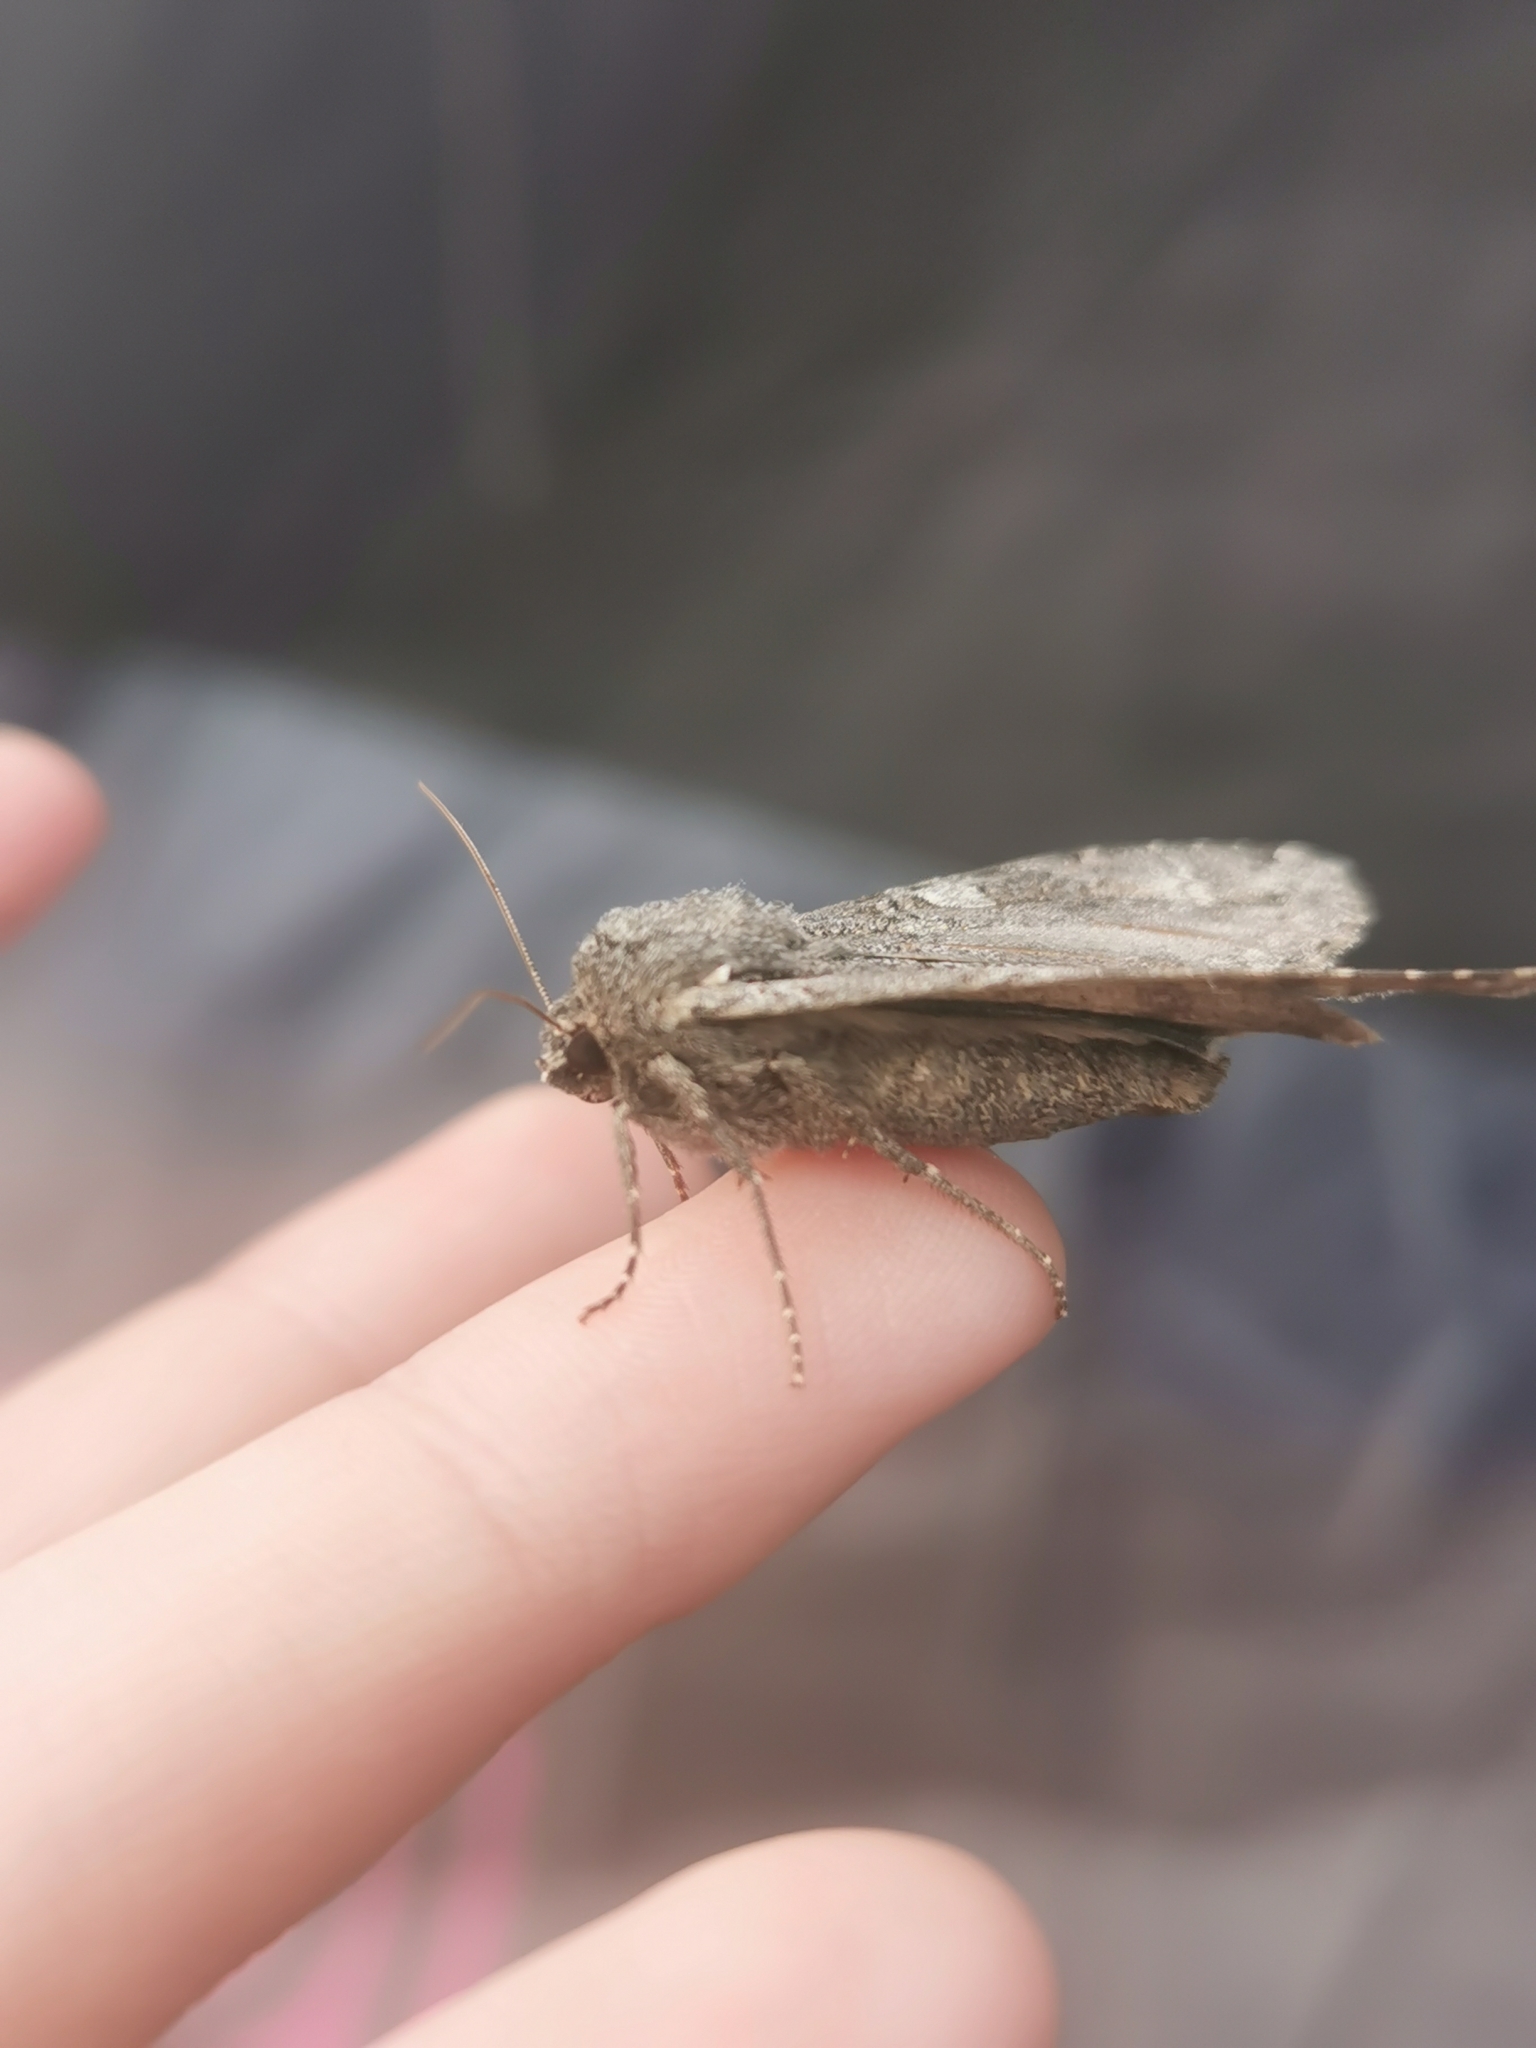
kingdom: Animalia
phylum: Arthropoda
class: Insecta
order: Lepidoptera
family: Noctuidae
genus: Eurois
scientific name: Eurois occulta
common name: Great brocade
